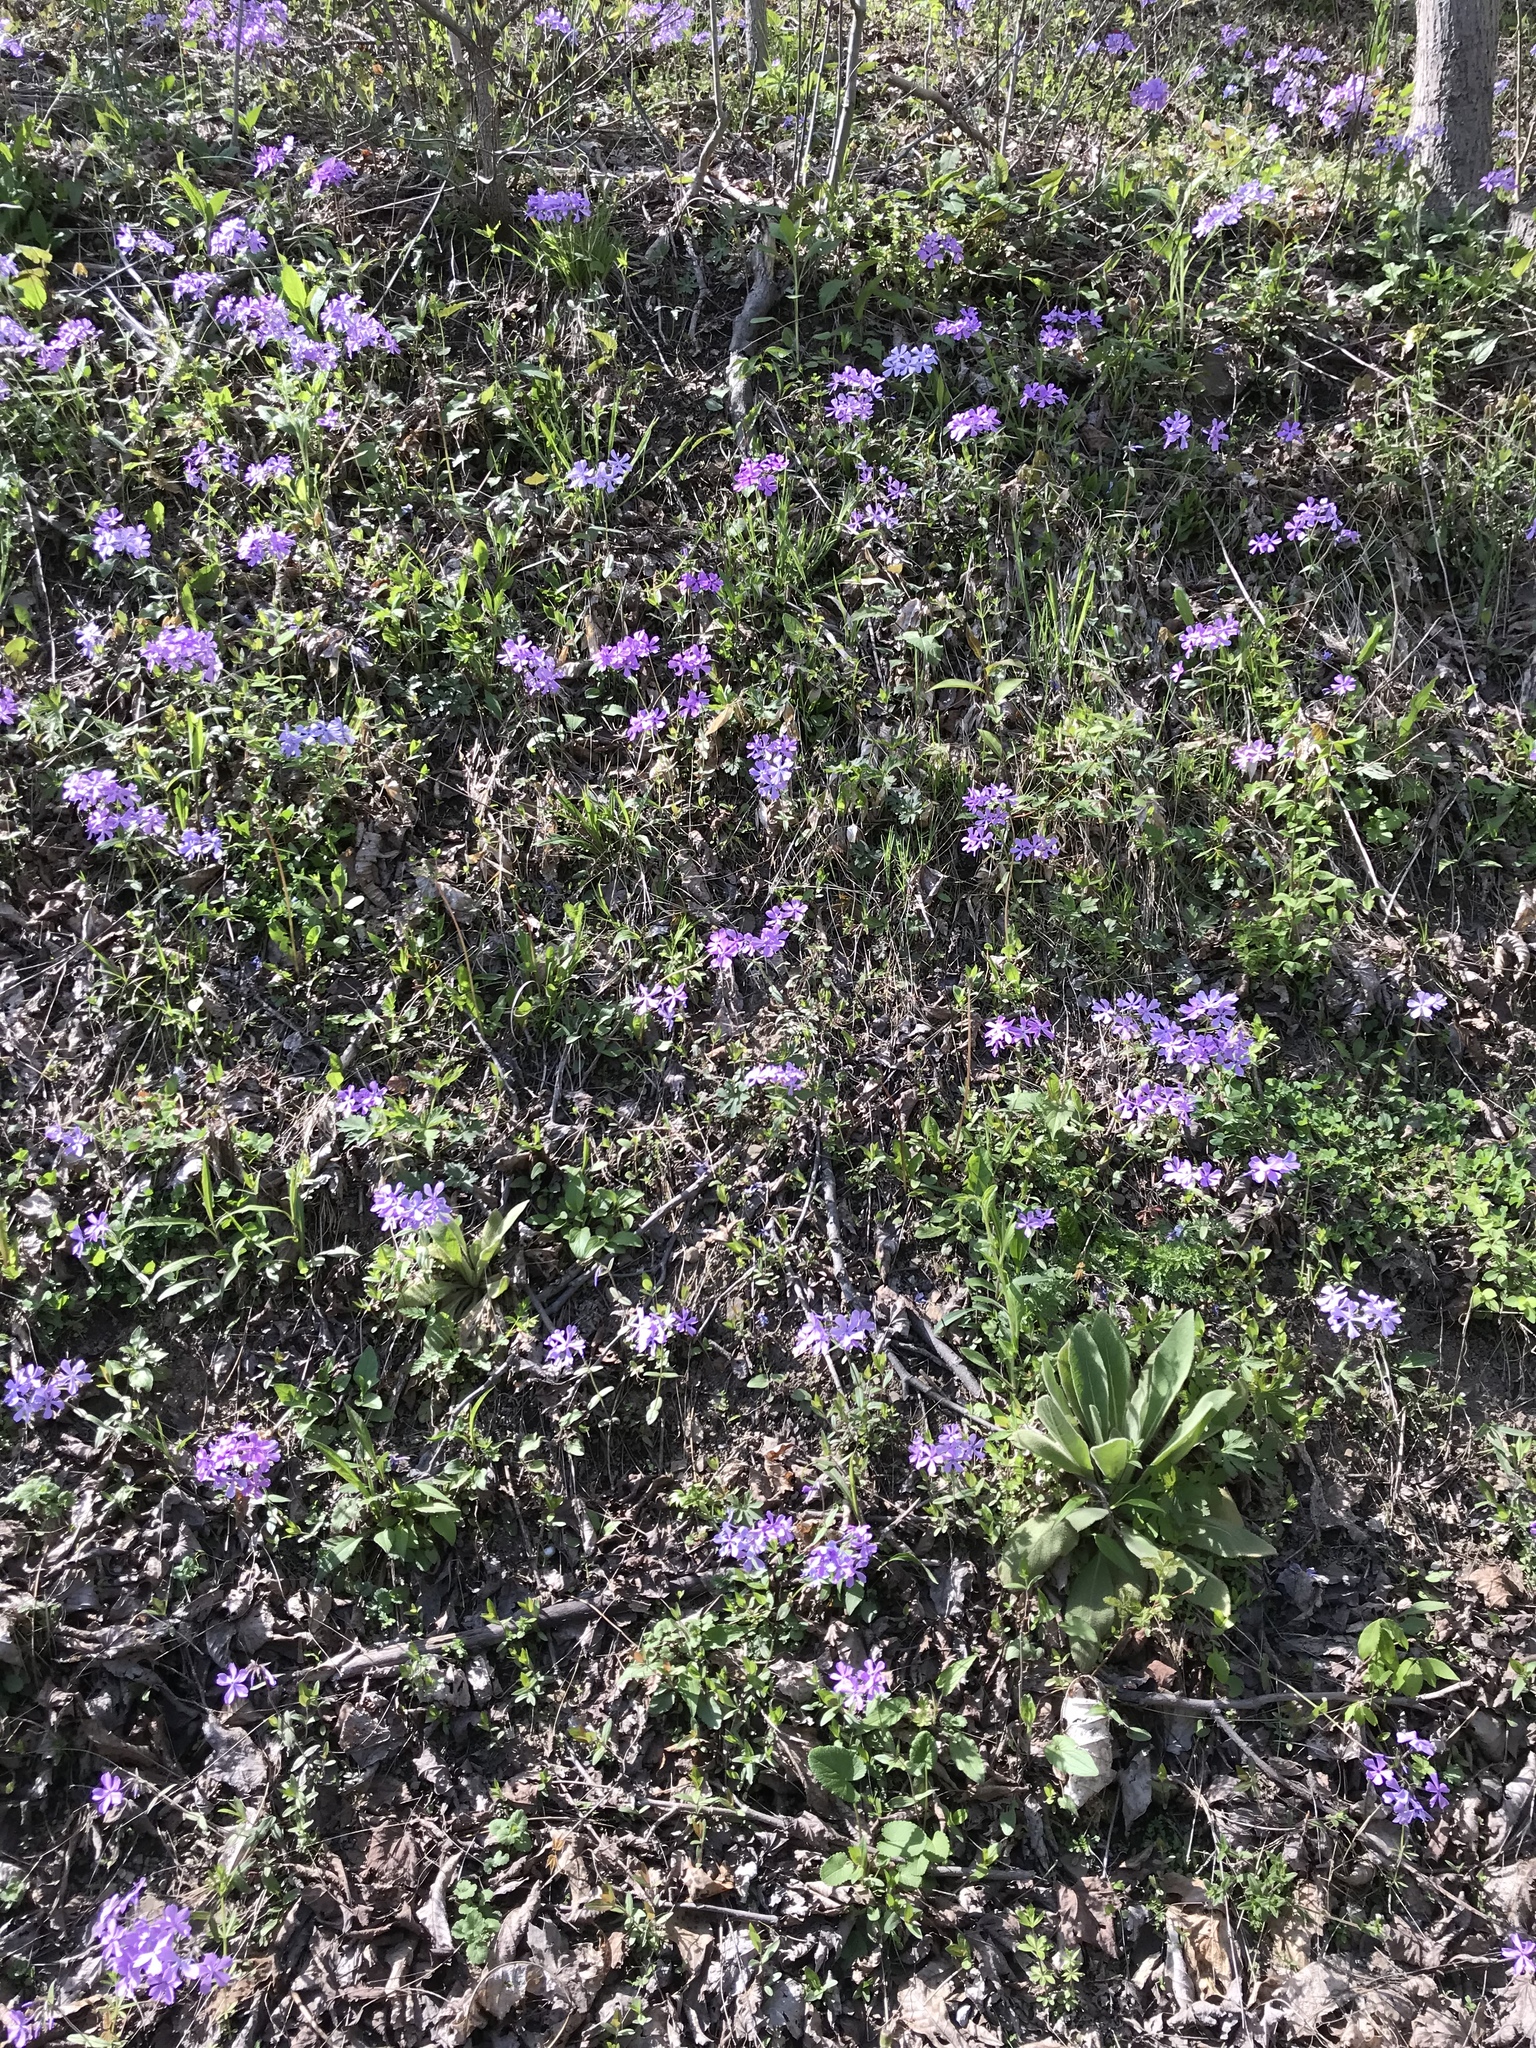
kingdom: Plantae
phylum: Tracheophyta
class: Magnoliopsida
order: Ericales
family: Polemoniaceae
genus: Phlox
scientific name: Phlox divaricata
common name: Blue phlox
